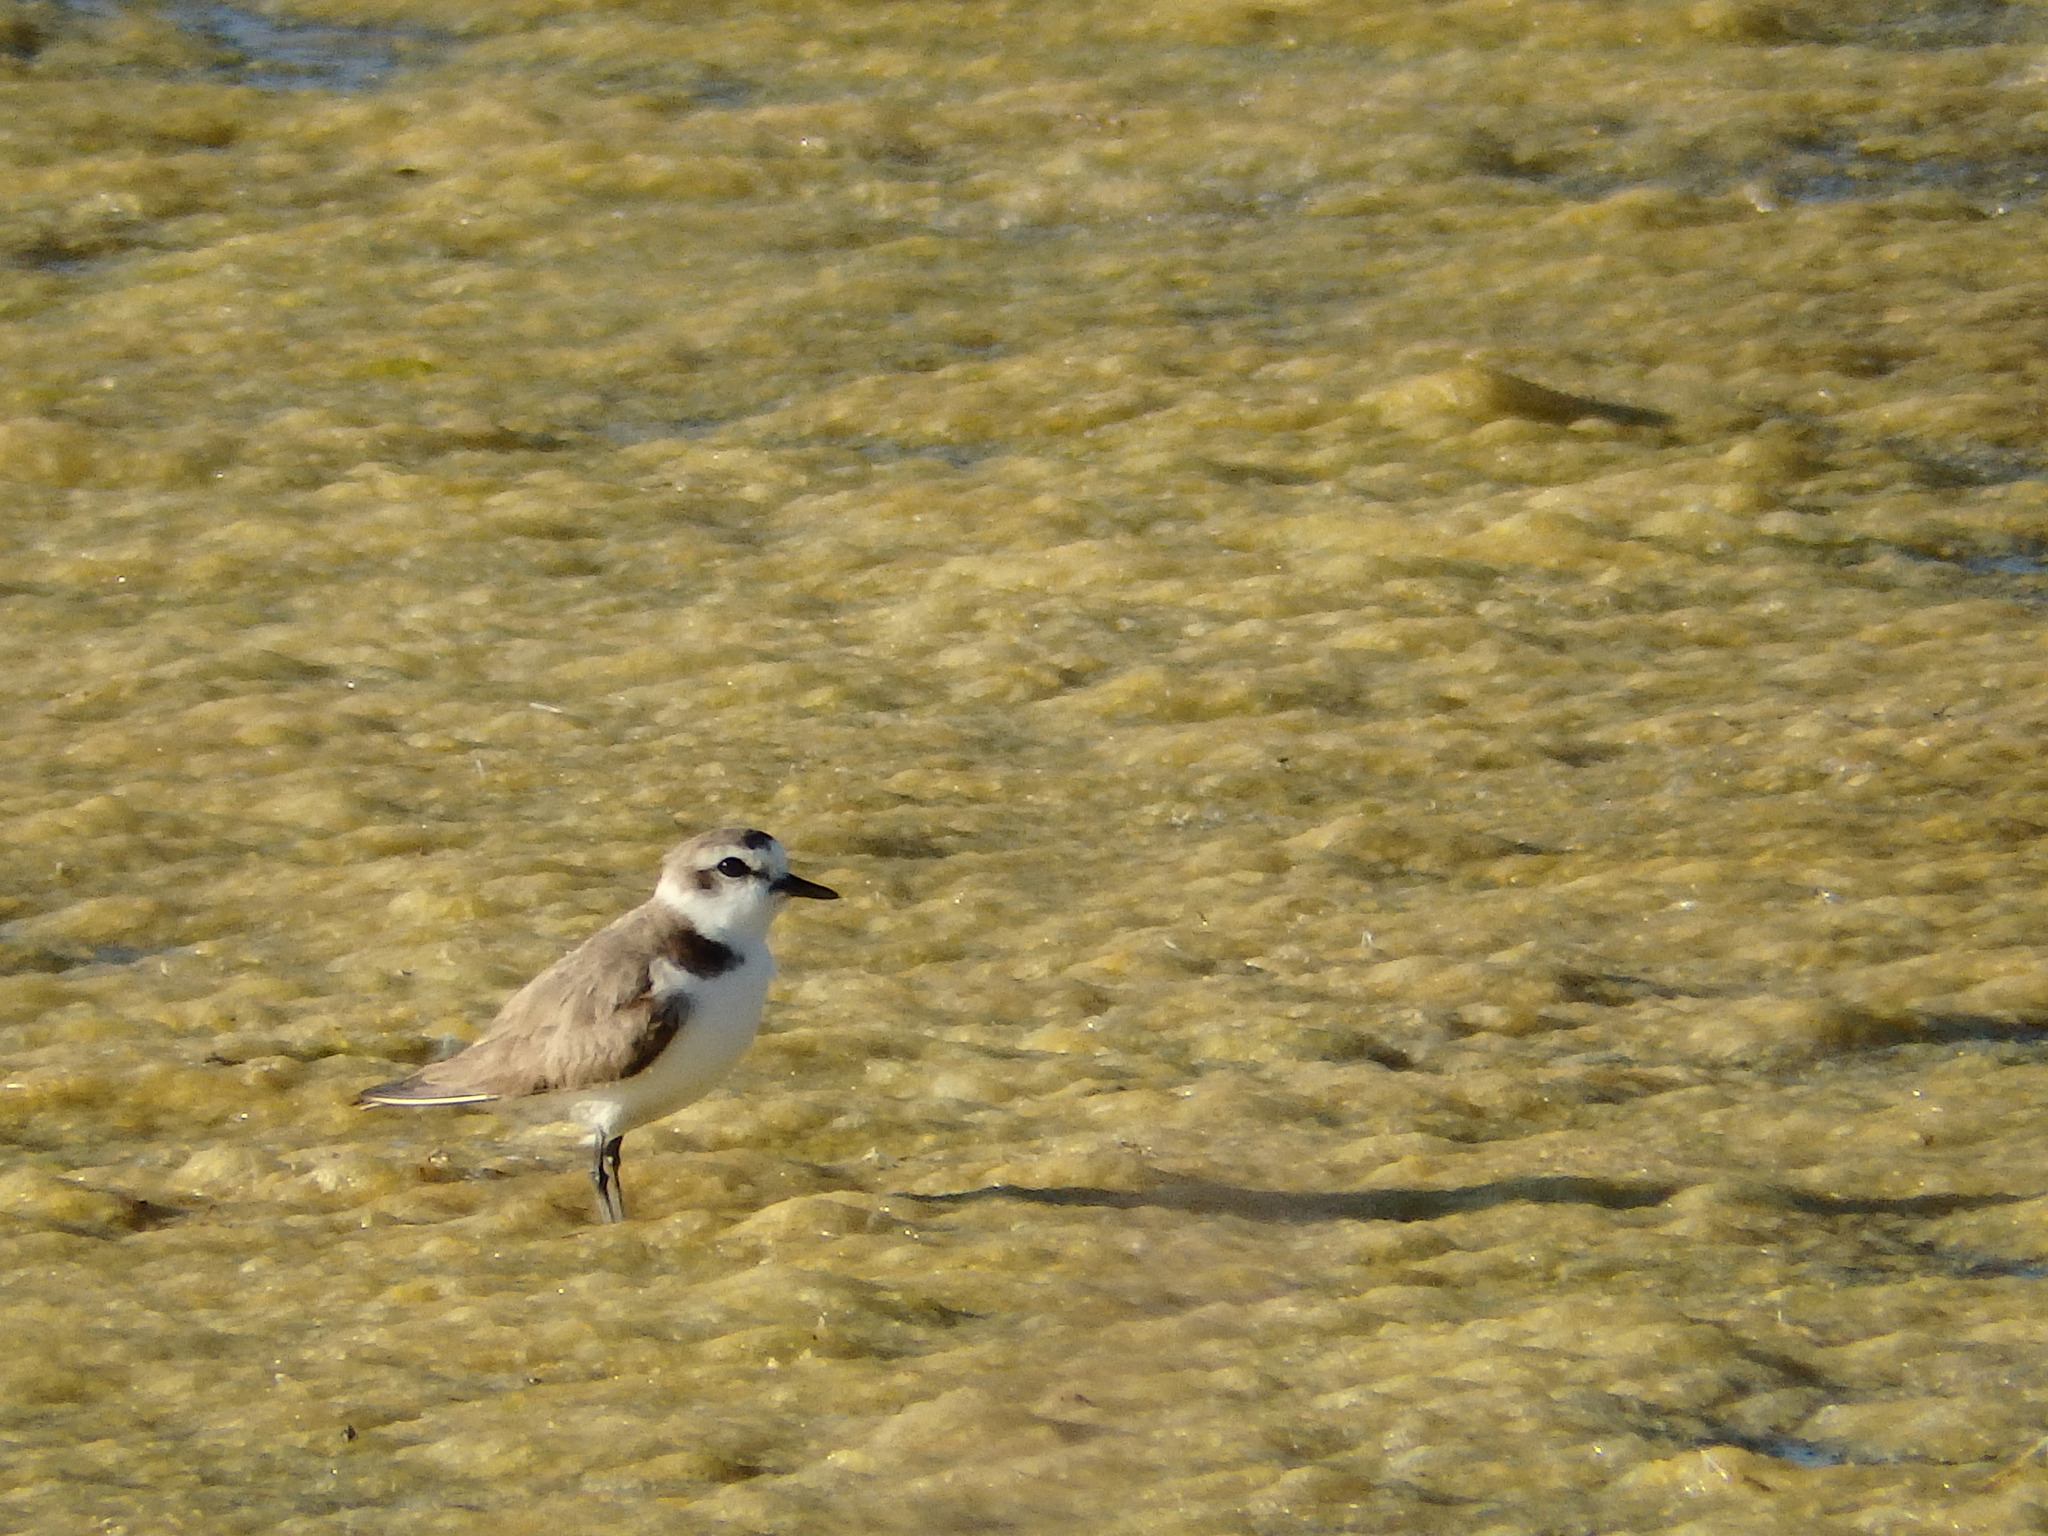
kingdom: Animalia
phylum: Chordata
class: Aves
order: Charadriiformes
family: Charadriidae
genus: Charadrius
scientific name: Charadrius alexandrinus
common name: Kentish plover
